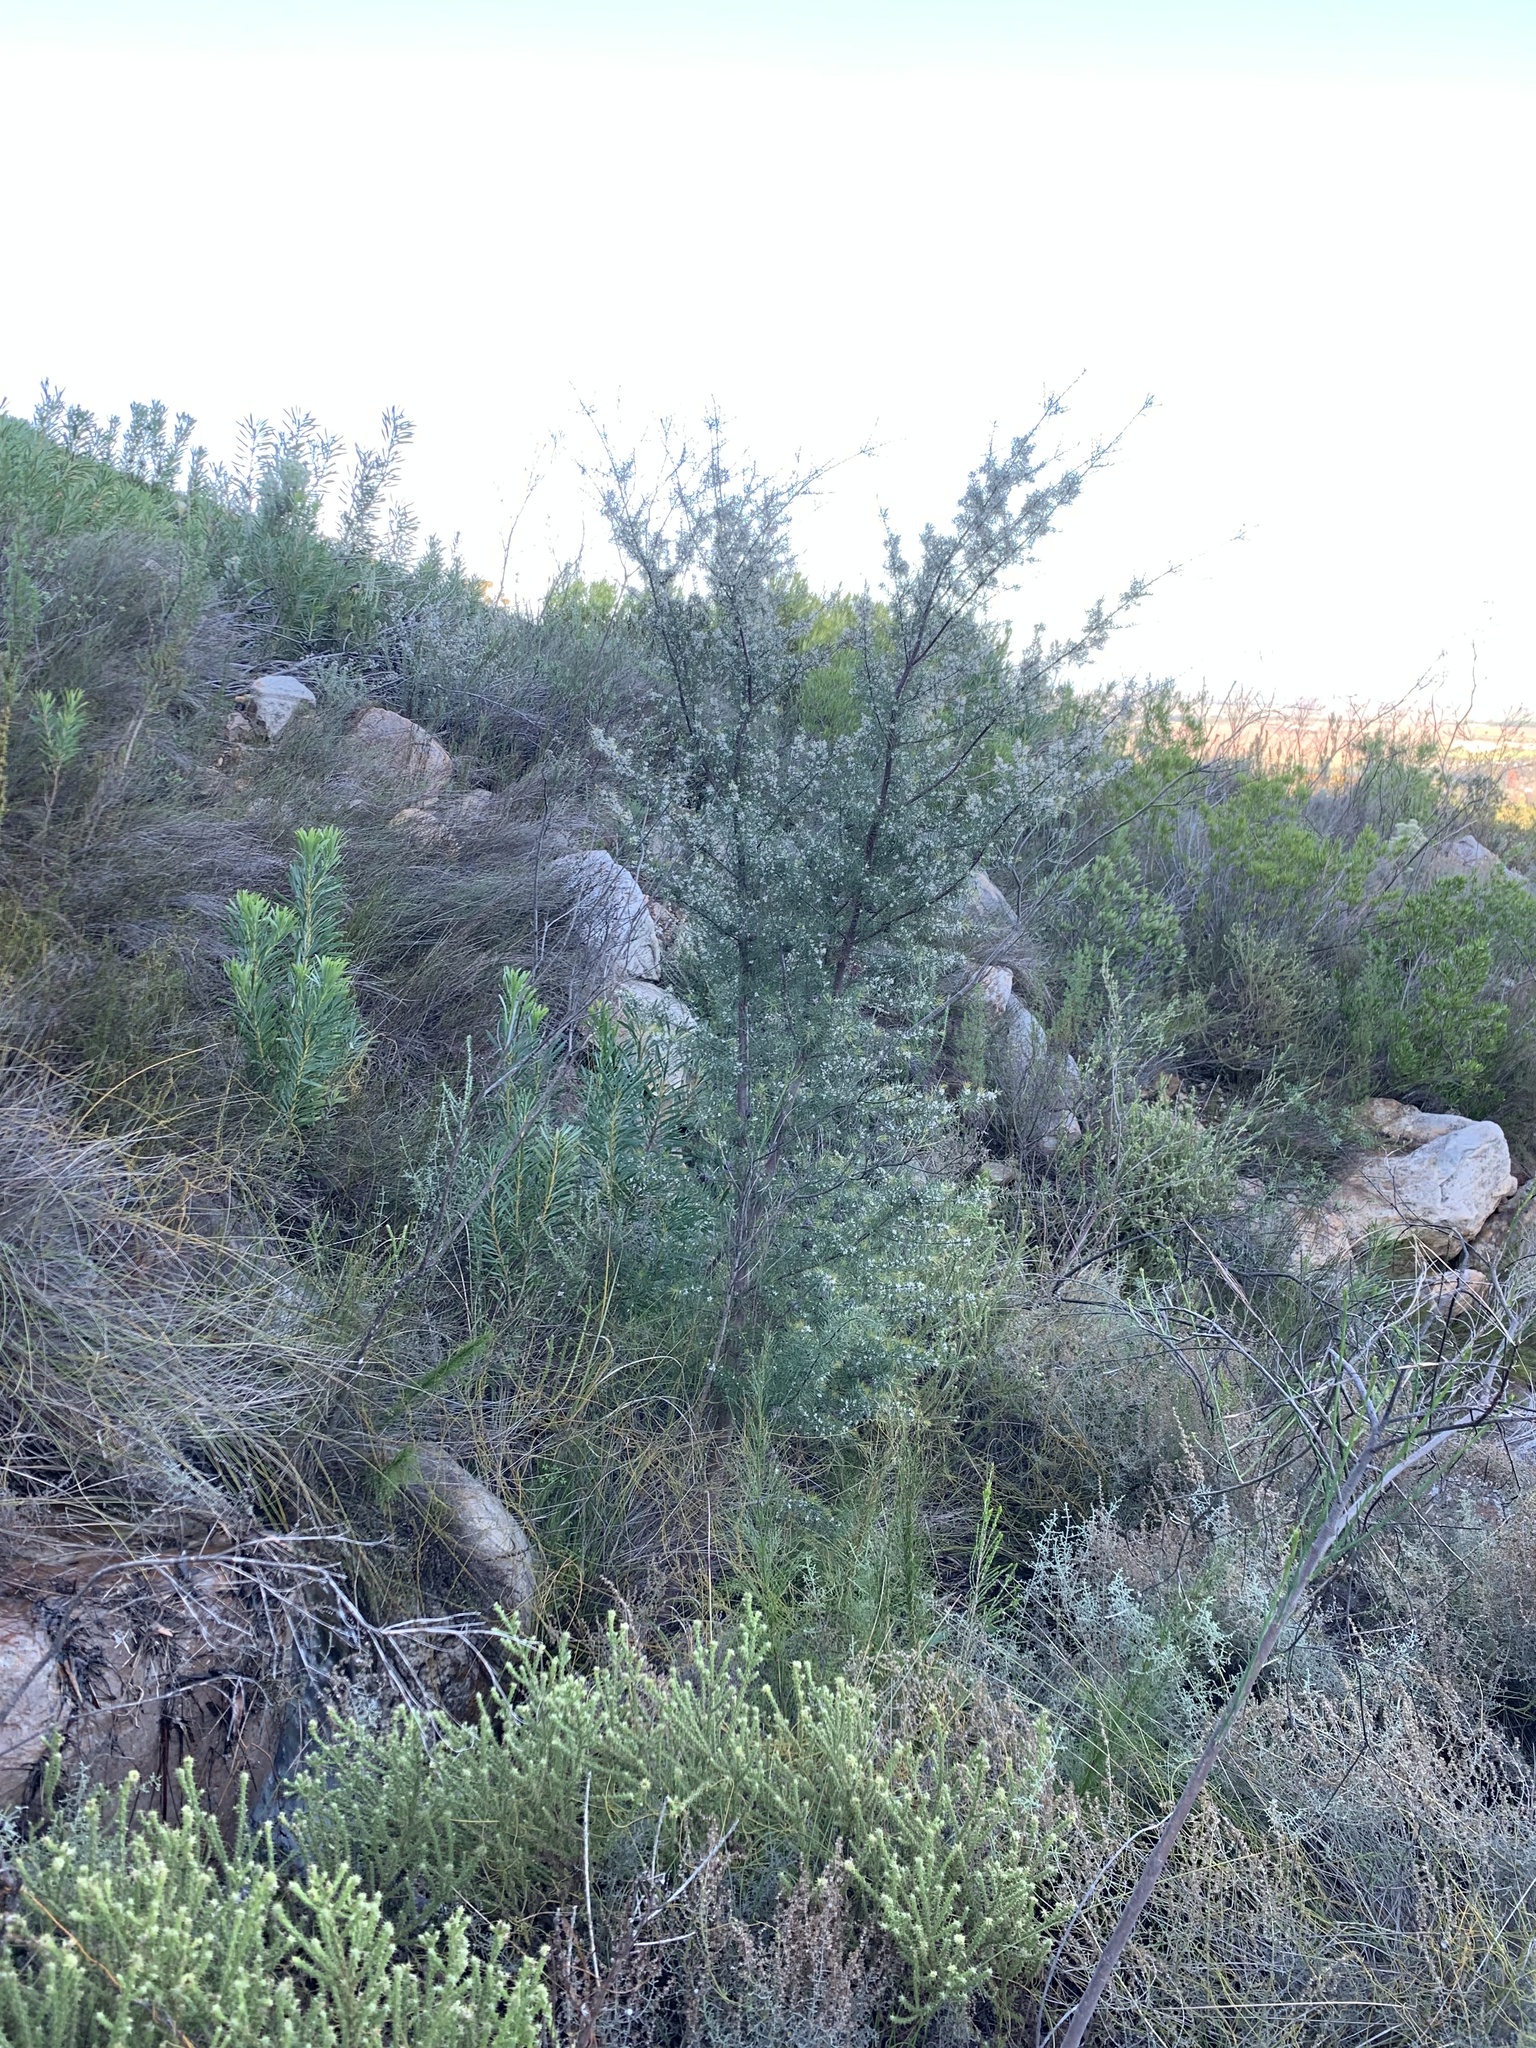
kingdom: Plantae
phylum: Tracheophyta
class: Magnoliopsida
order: Proteales
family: Proteaceae
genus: Hakea
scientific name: Hakea sericea
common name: Needle bush
